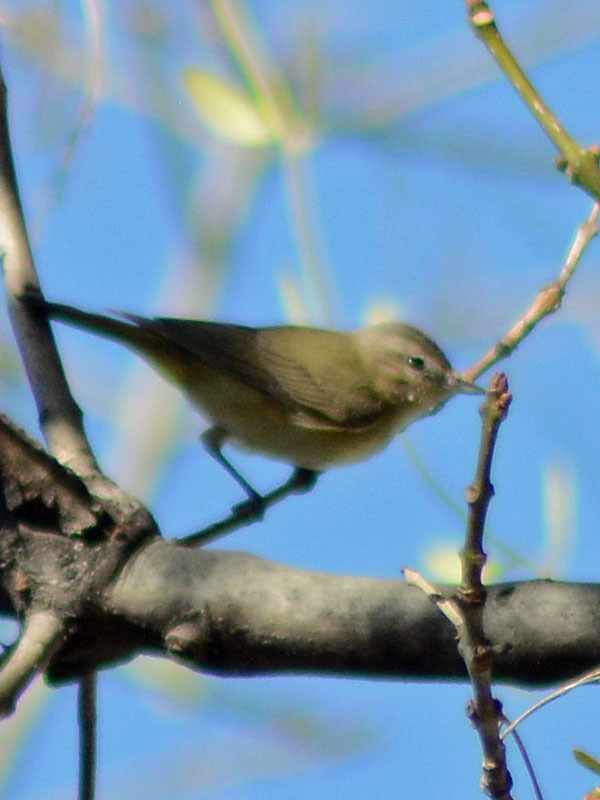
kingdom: Animalia
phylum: Chordata
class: Aves
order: Passeriformes
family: Vireonidae
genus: Vireo
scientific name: Vireo gilvus
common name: Warbling vireo
